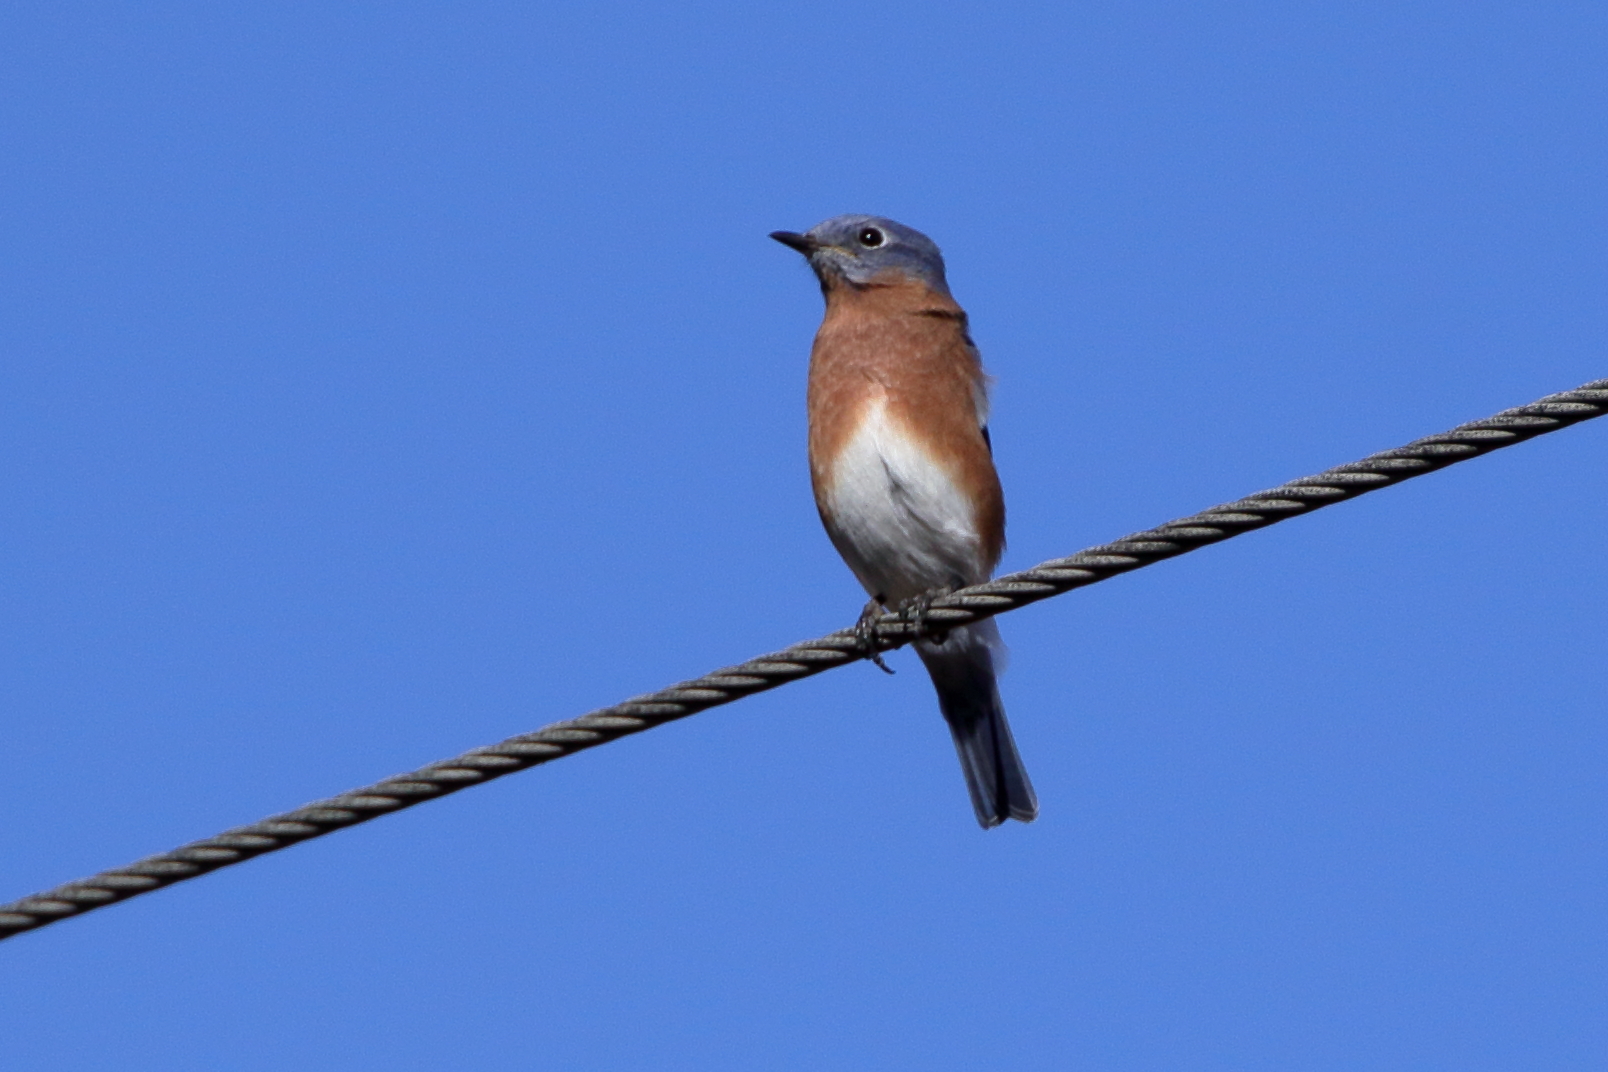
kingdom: Animalia
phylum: Chordata
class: Aves
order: Passeriformes
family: Turdidae
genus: Sialia
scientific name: Sialia sialis
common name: Eastern bluebird
